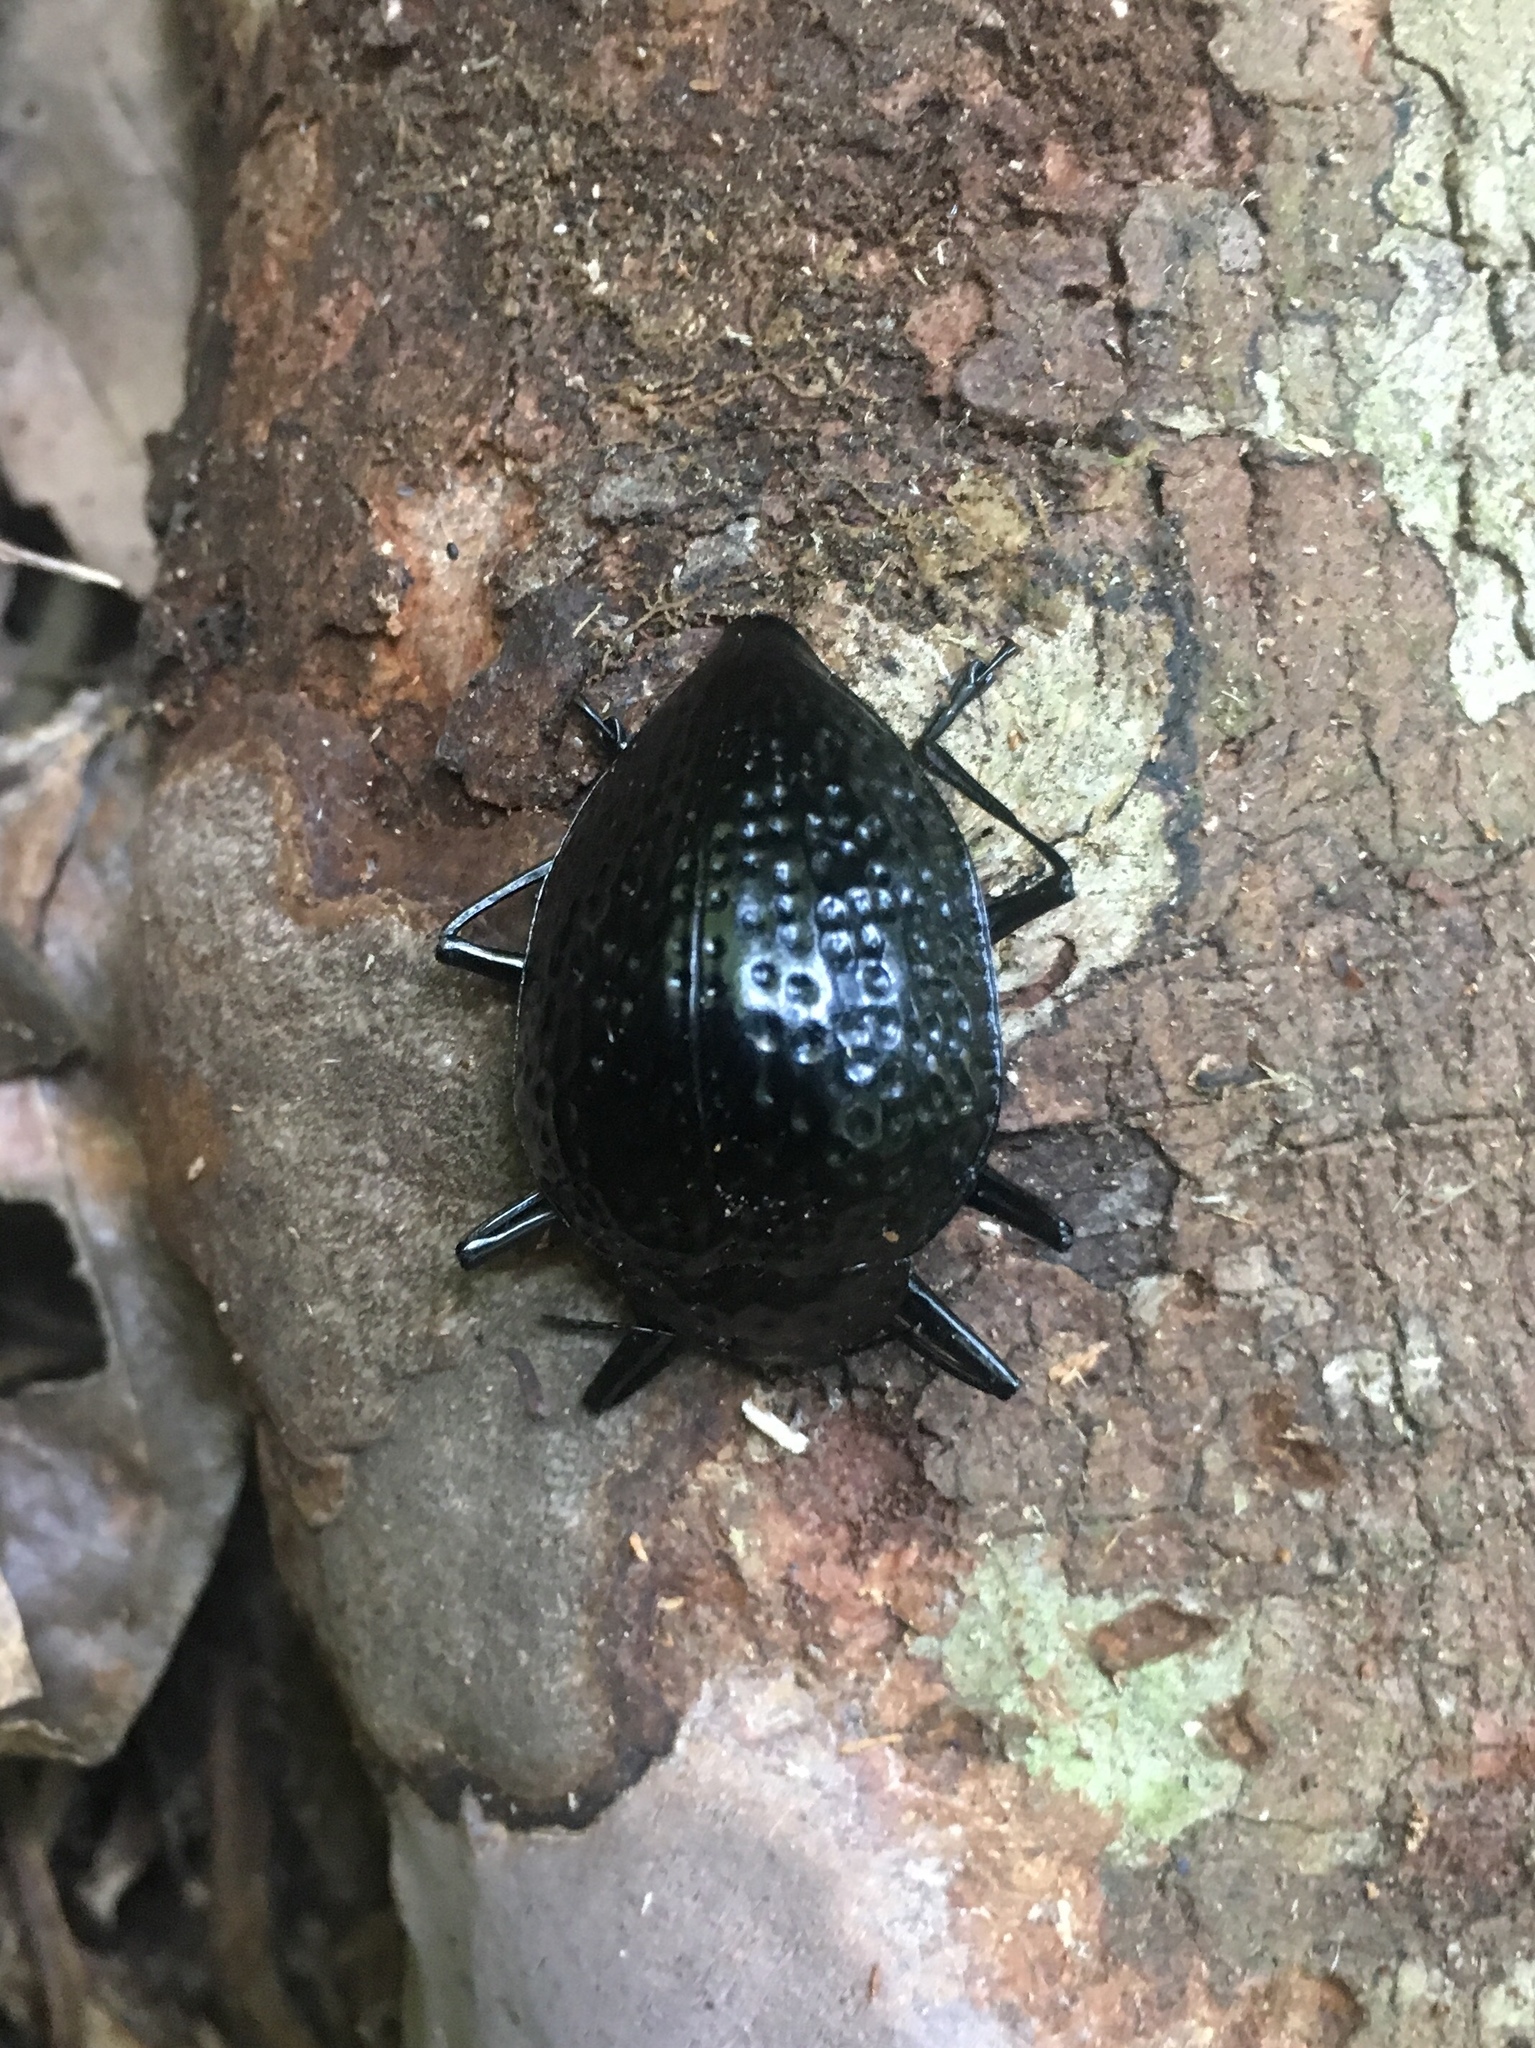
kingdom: Animalia
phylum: Arthropoda
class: Insecta
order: Coleoptera
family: Erotylidae
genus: Erotylus
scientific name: Erotylus
